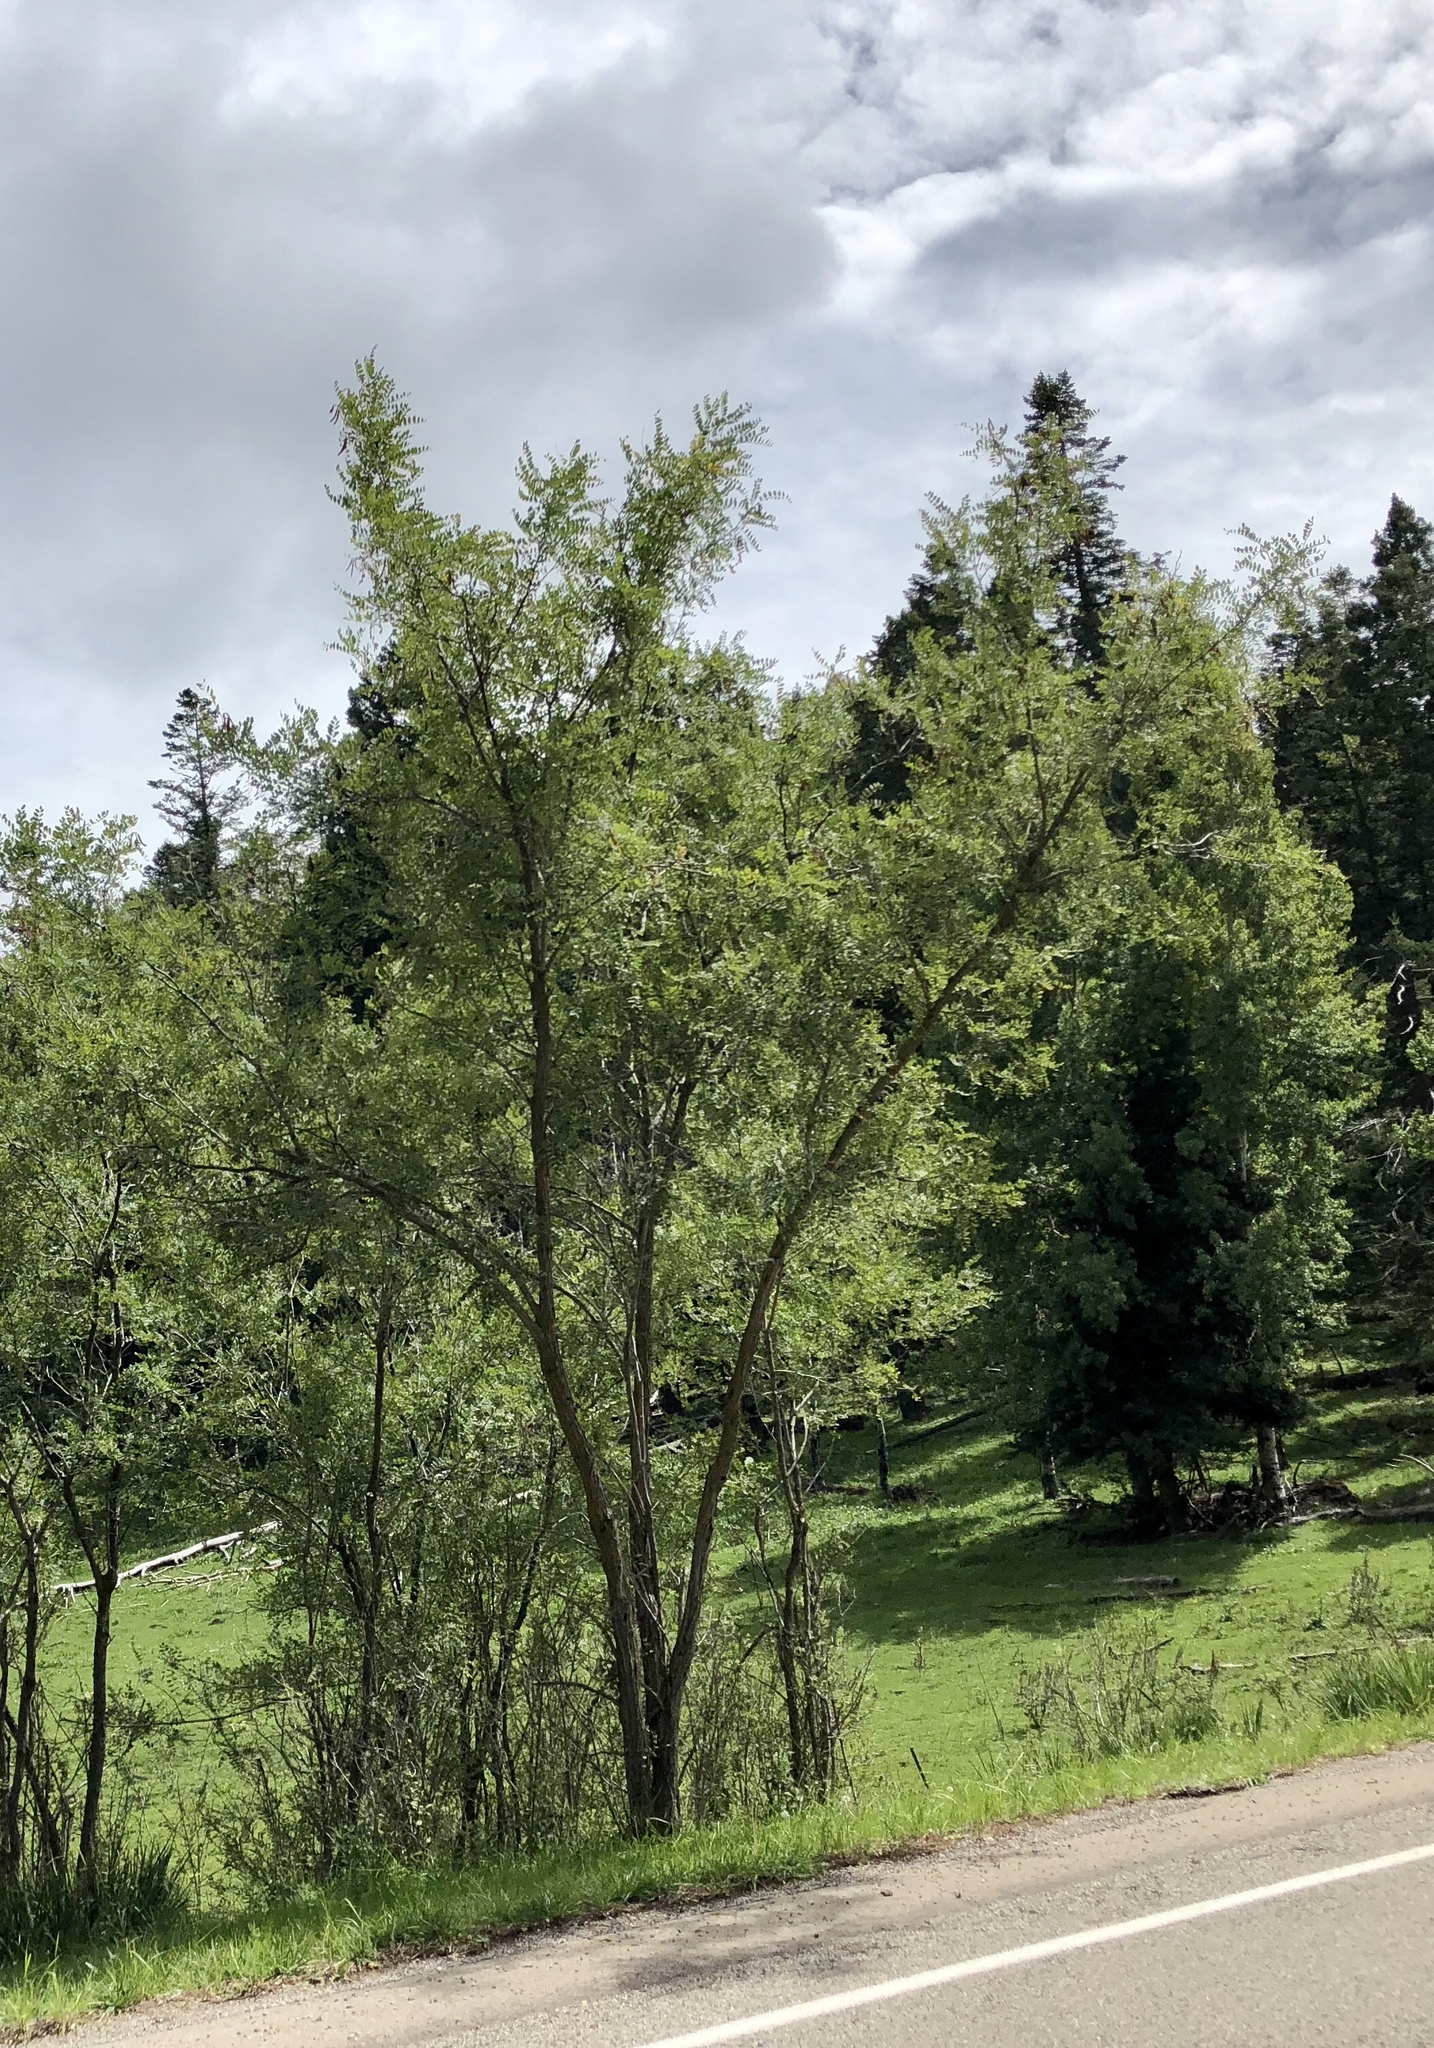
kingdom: Plantae
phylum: Tracheophyta
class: Magnoliopsida
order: Fabales
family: Fabaceae
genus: Robinia
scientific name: Robinia neomexicana
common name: New mexico locust
